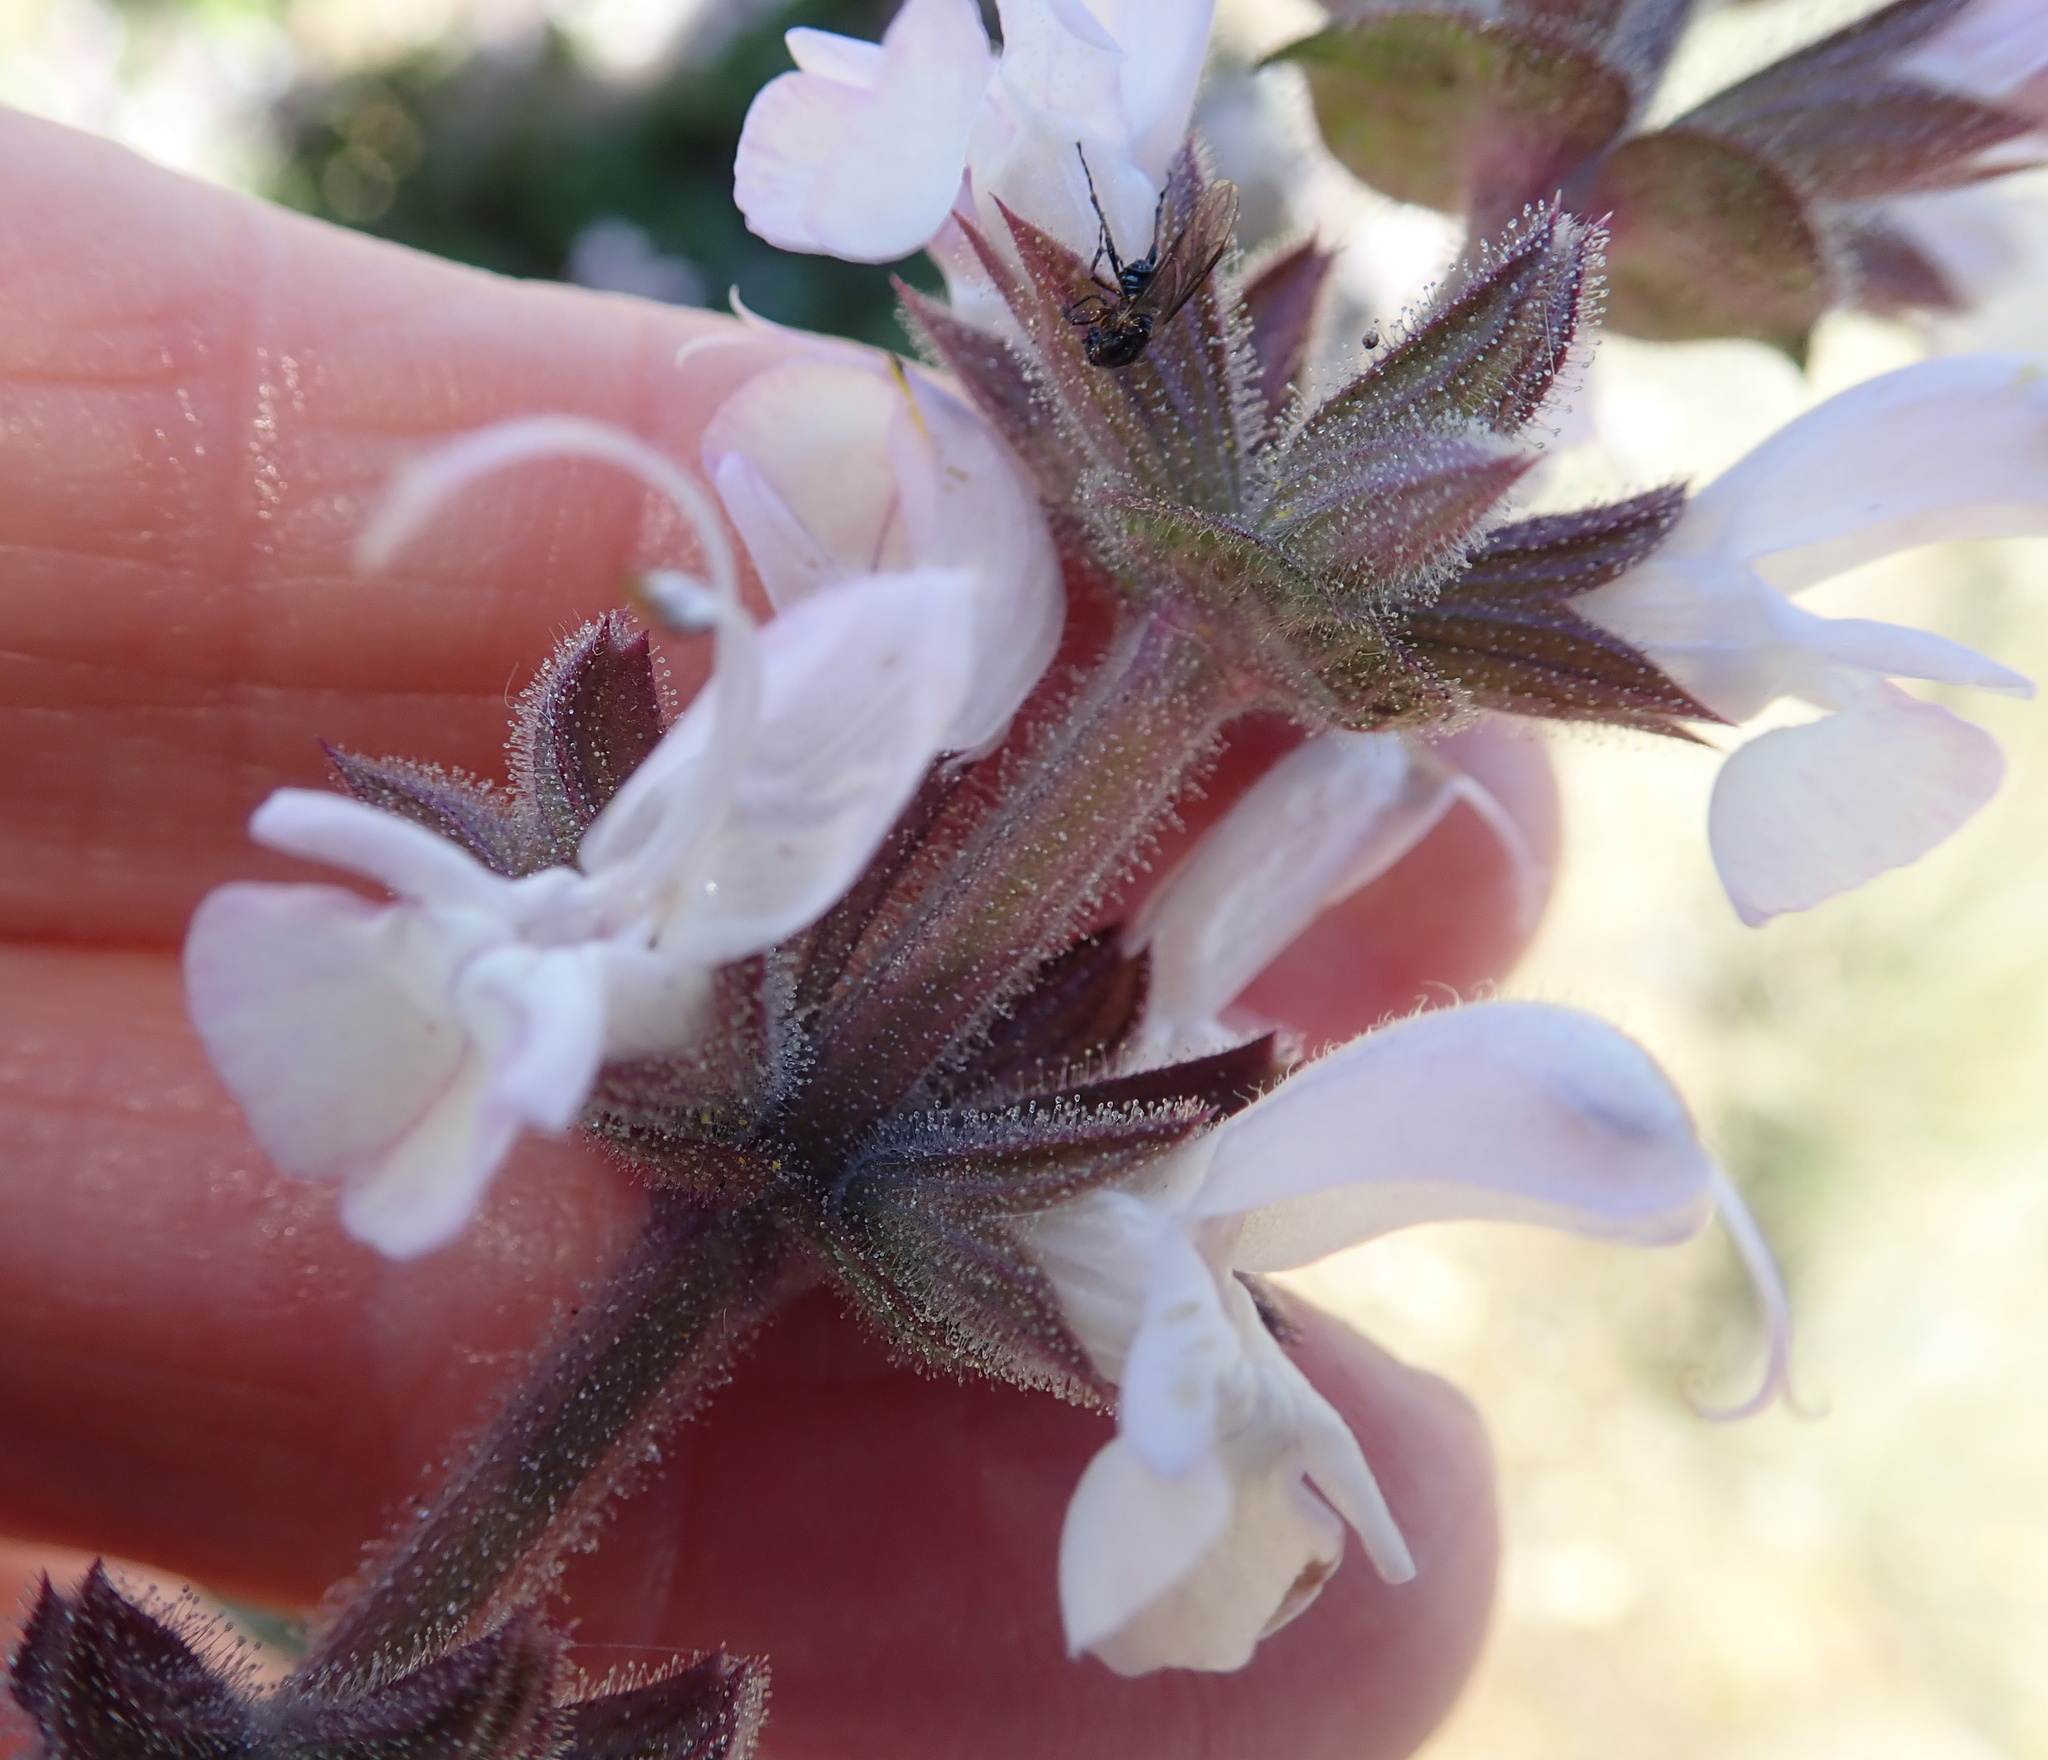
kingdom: Plantae
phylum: Tracheophyta
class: Magnoliopsida
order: Lamiales
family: Lamiaceae
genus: Salvia
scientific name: Salvia disermas
